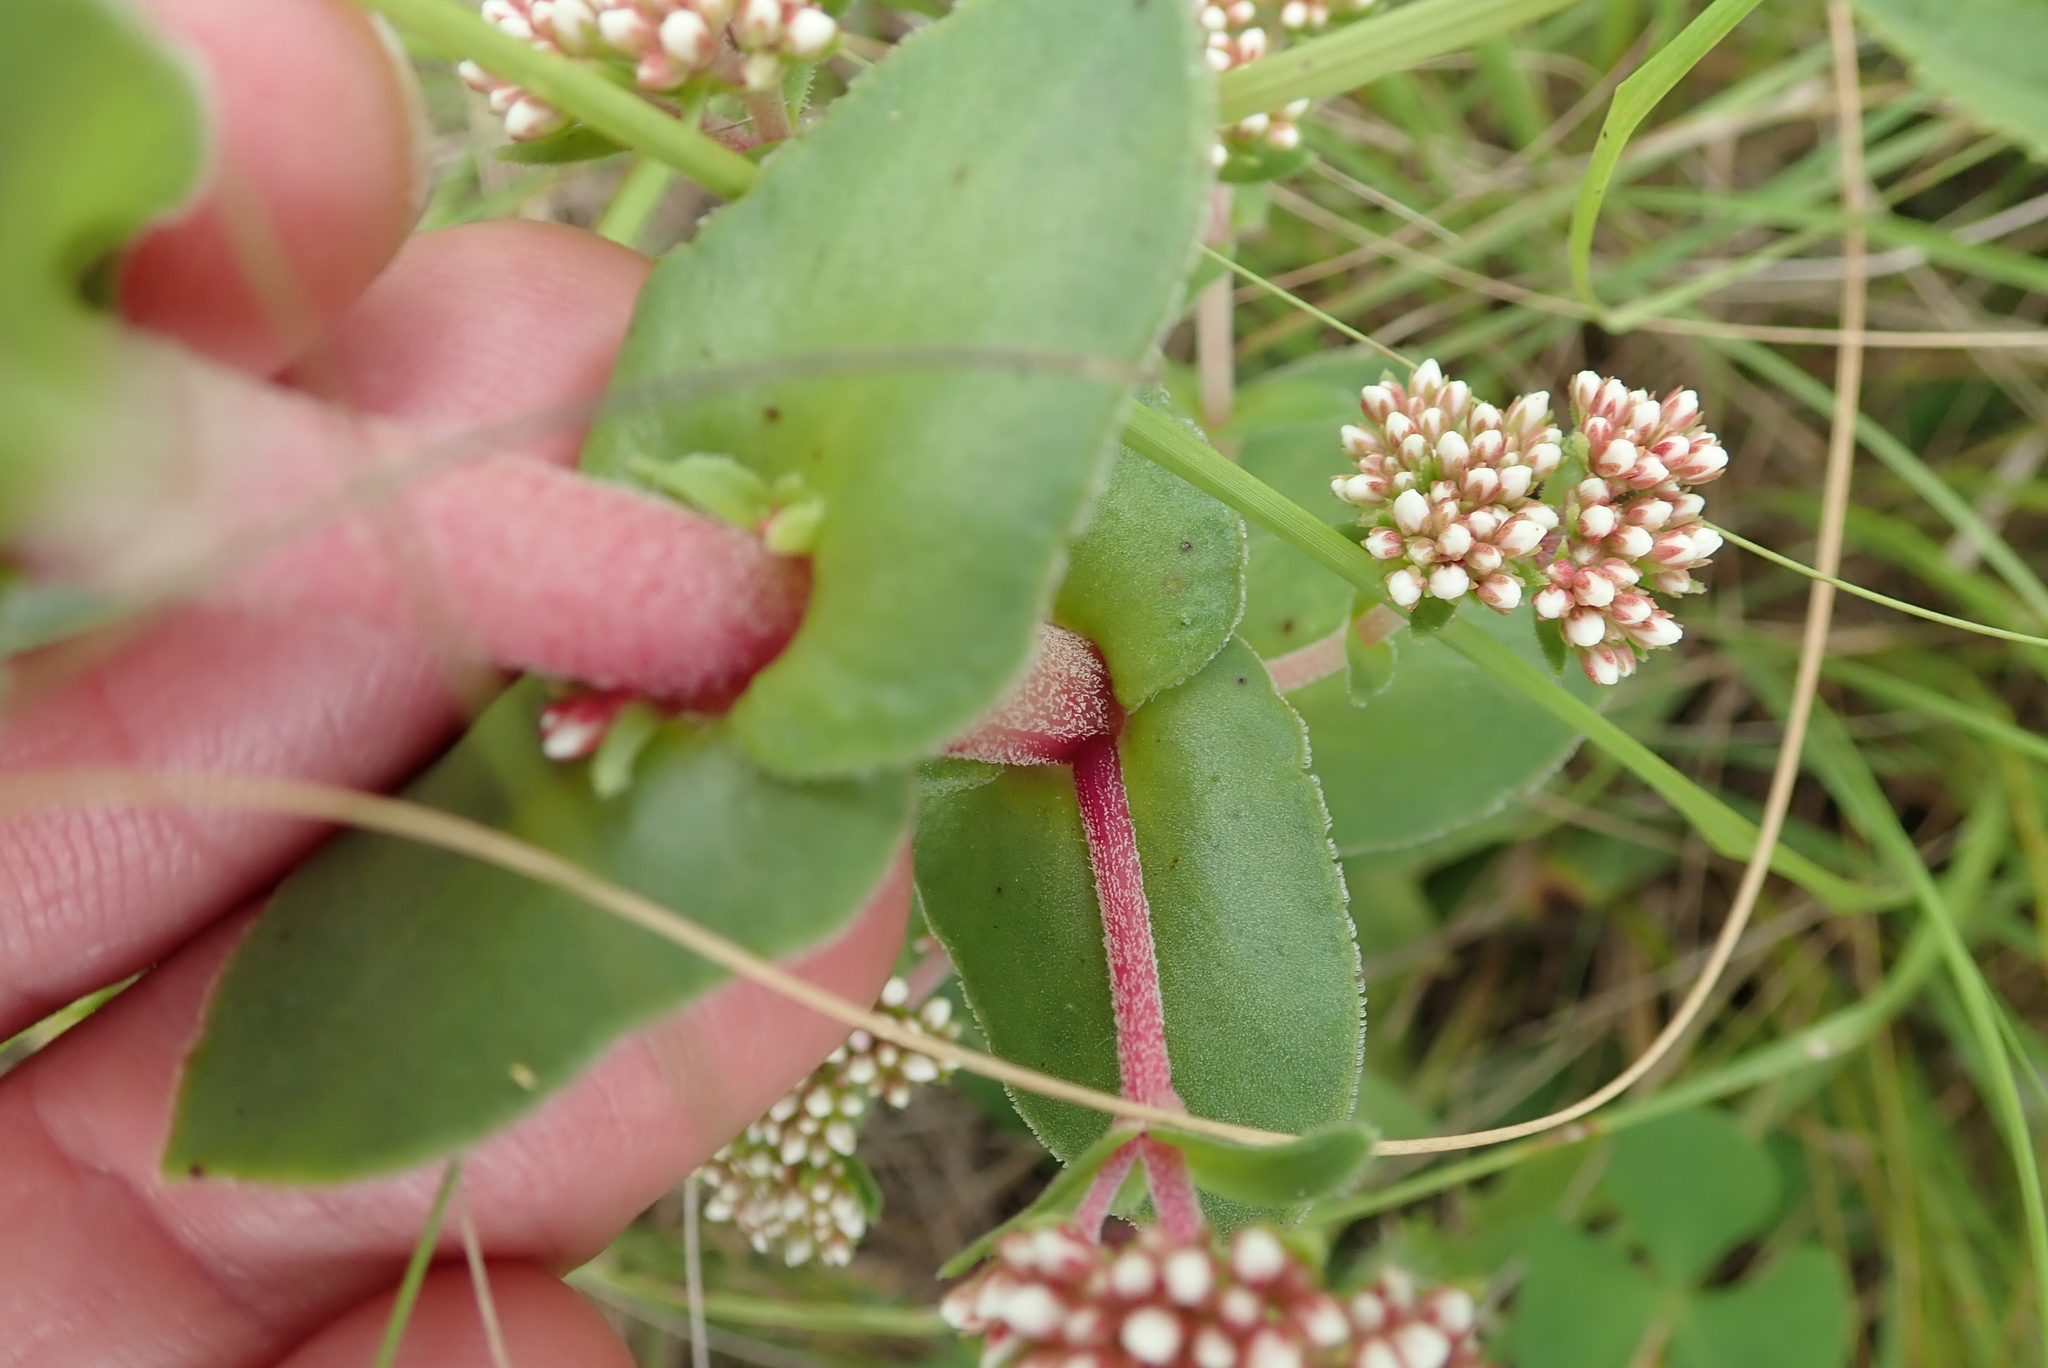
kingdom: Plantae
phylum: Tracheophyta
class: Magnoliopsida
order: Saxifragales
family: Crassulaceae
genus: Crassula
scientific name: Crassula natalensis
